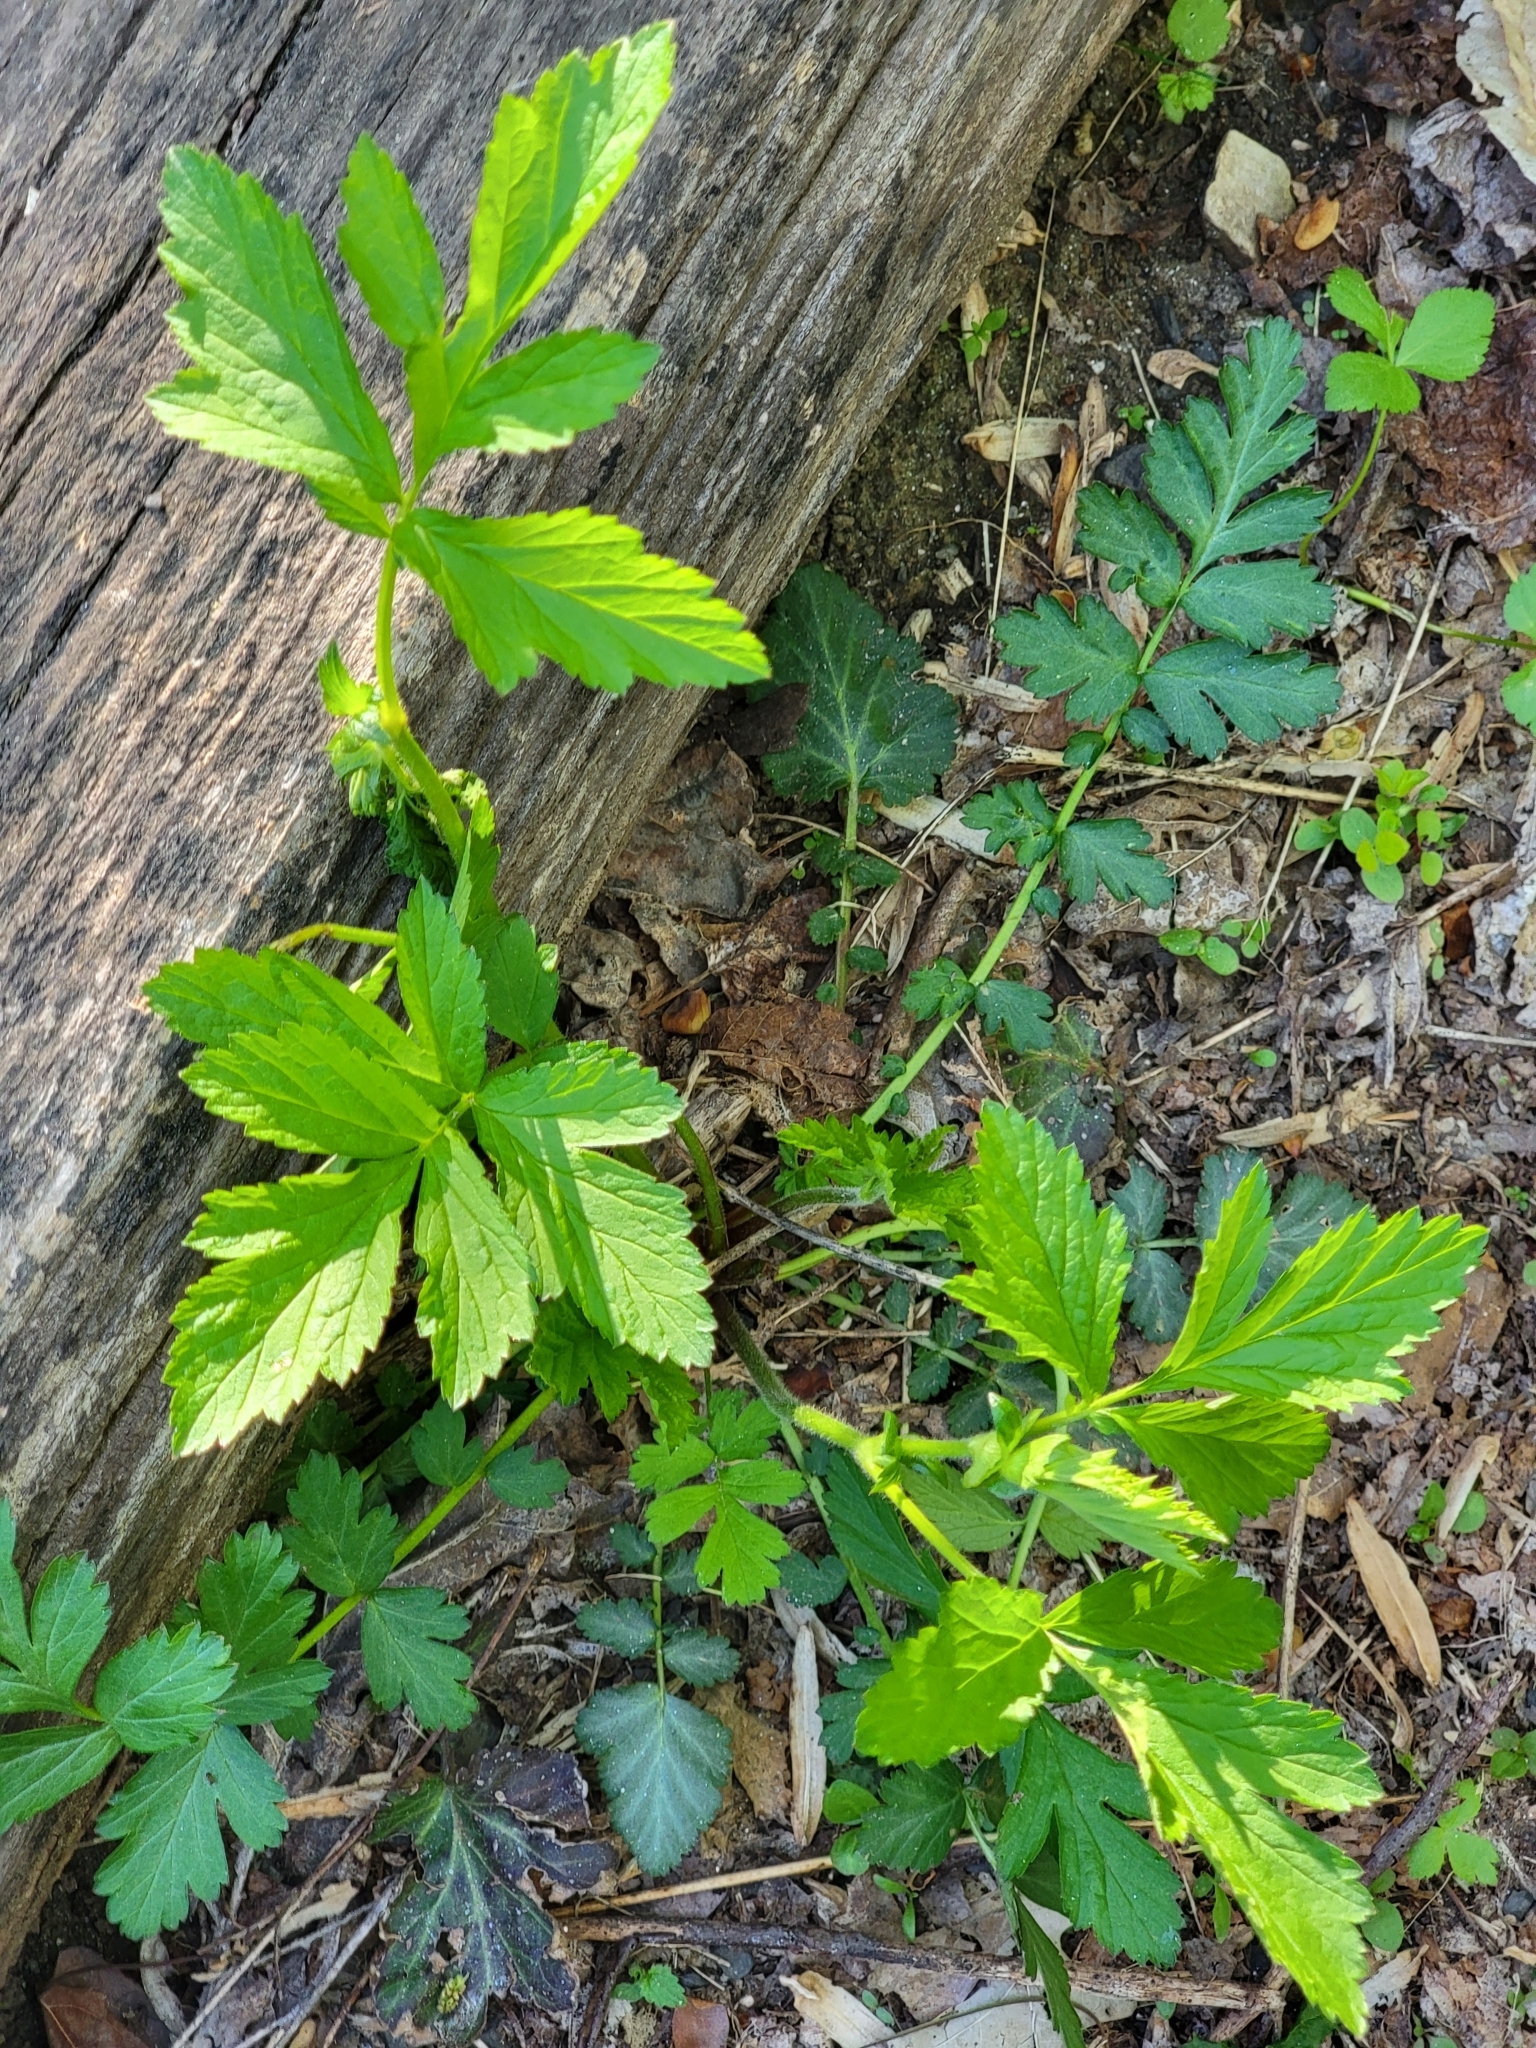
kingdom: Plantae
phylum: Tracheophyta
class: Magnoliopsida
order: Rosales
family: Rosaceae
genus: Geum
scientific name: Geum canadense
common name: White avens
